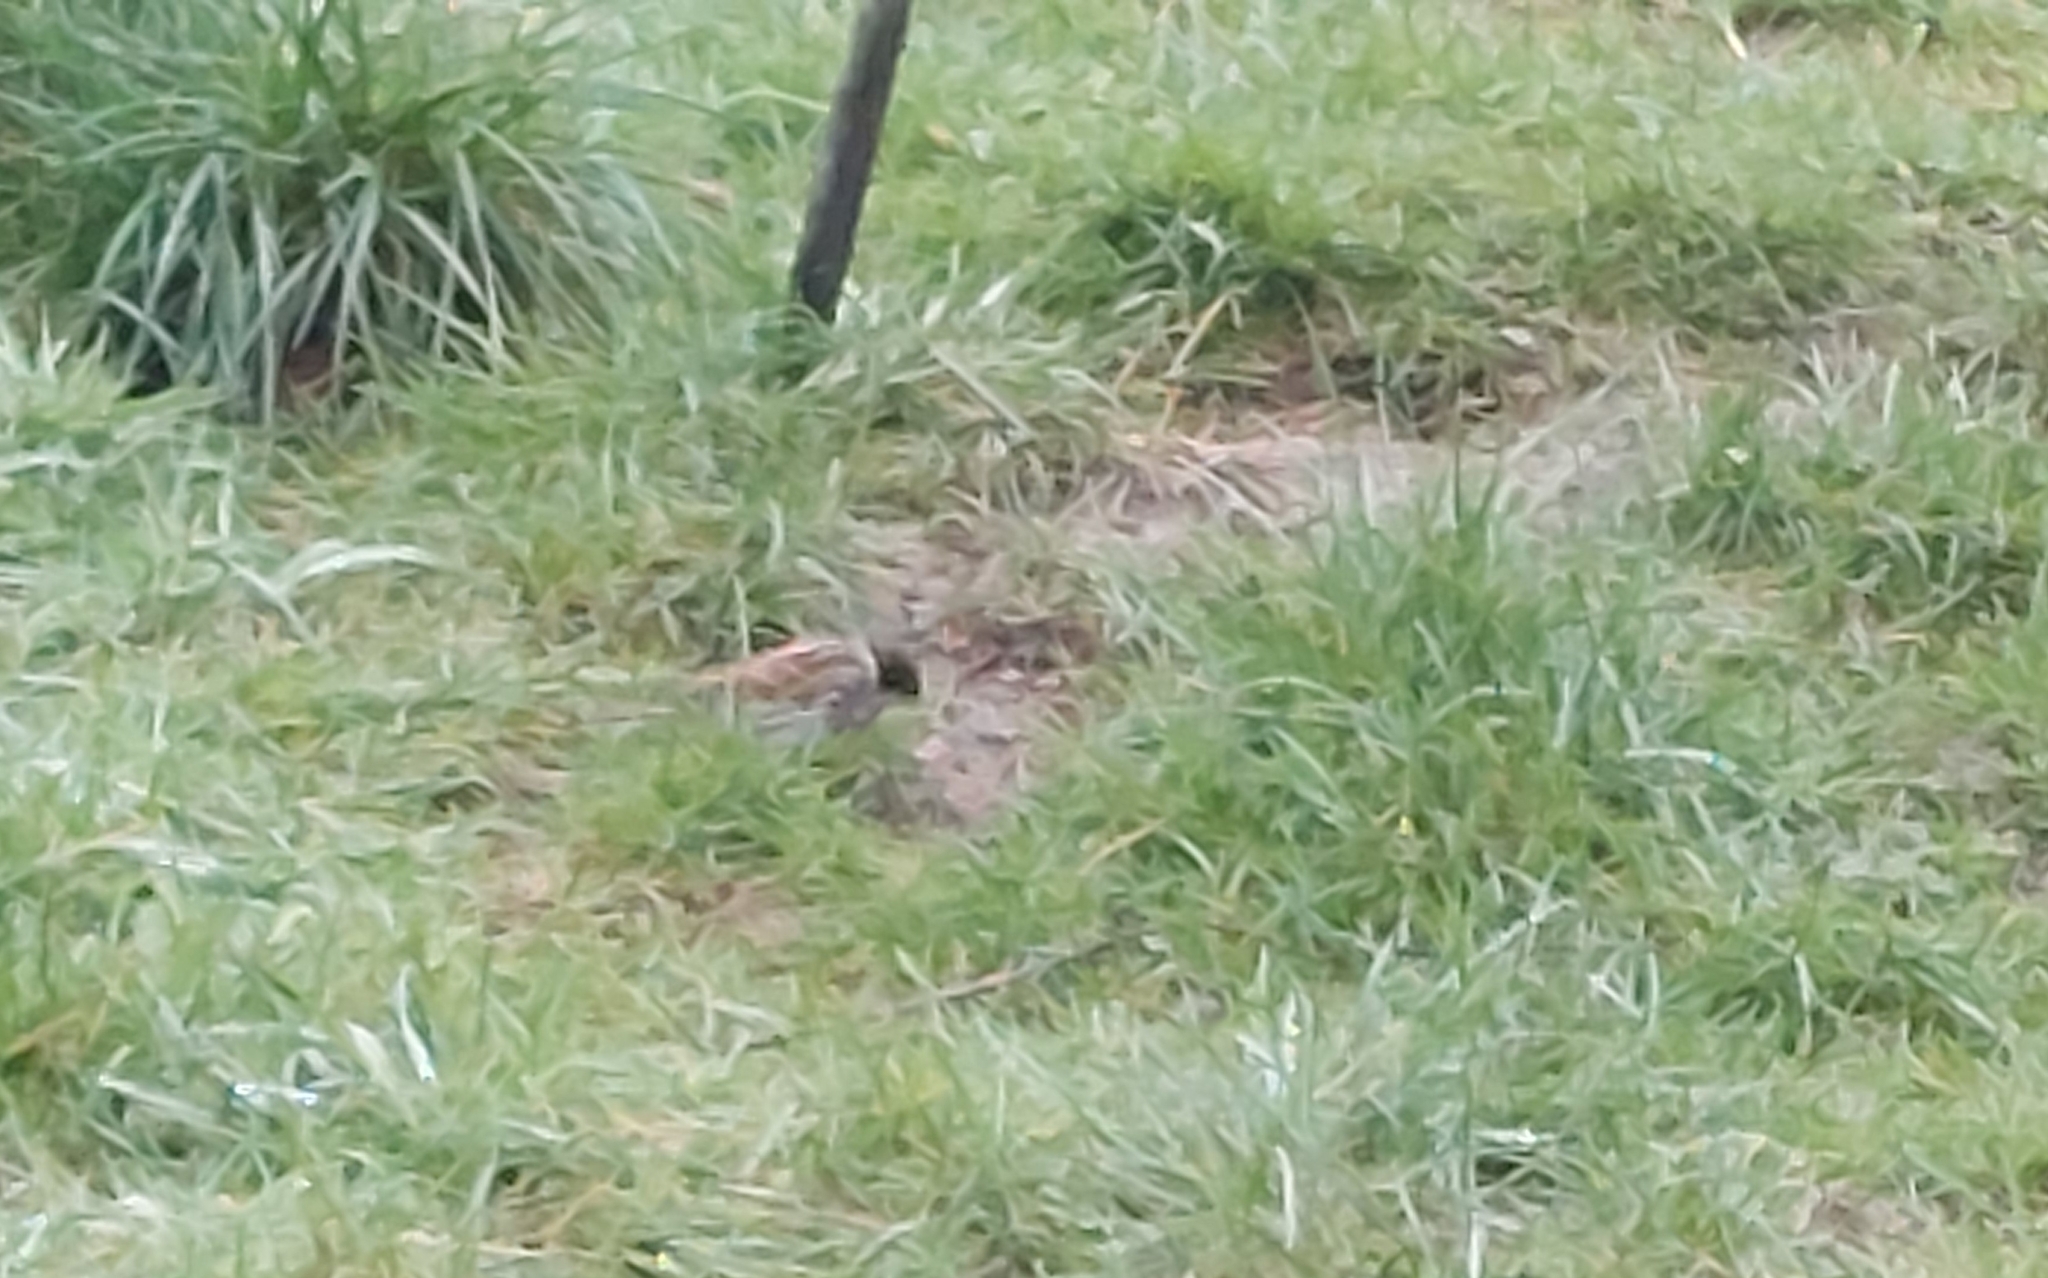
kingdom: Animalia
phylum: Chordata
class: Aves
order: Passeriformes
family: Emberizidae
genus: Emberiza
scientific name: Emberiza schoeniclus
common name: Reed bunting
